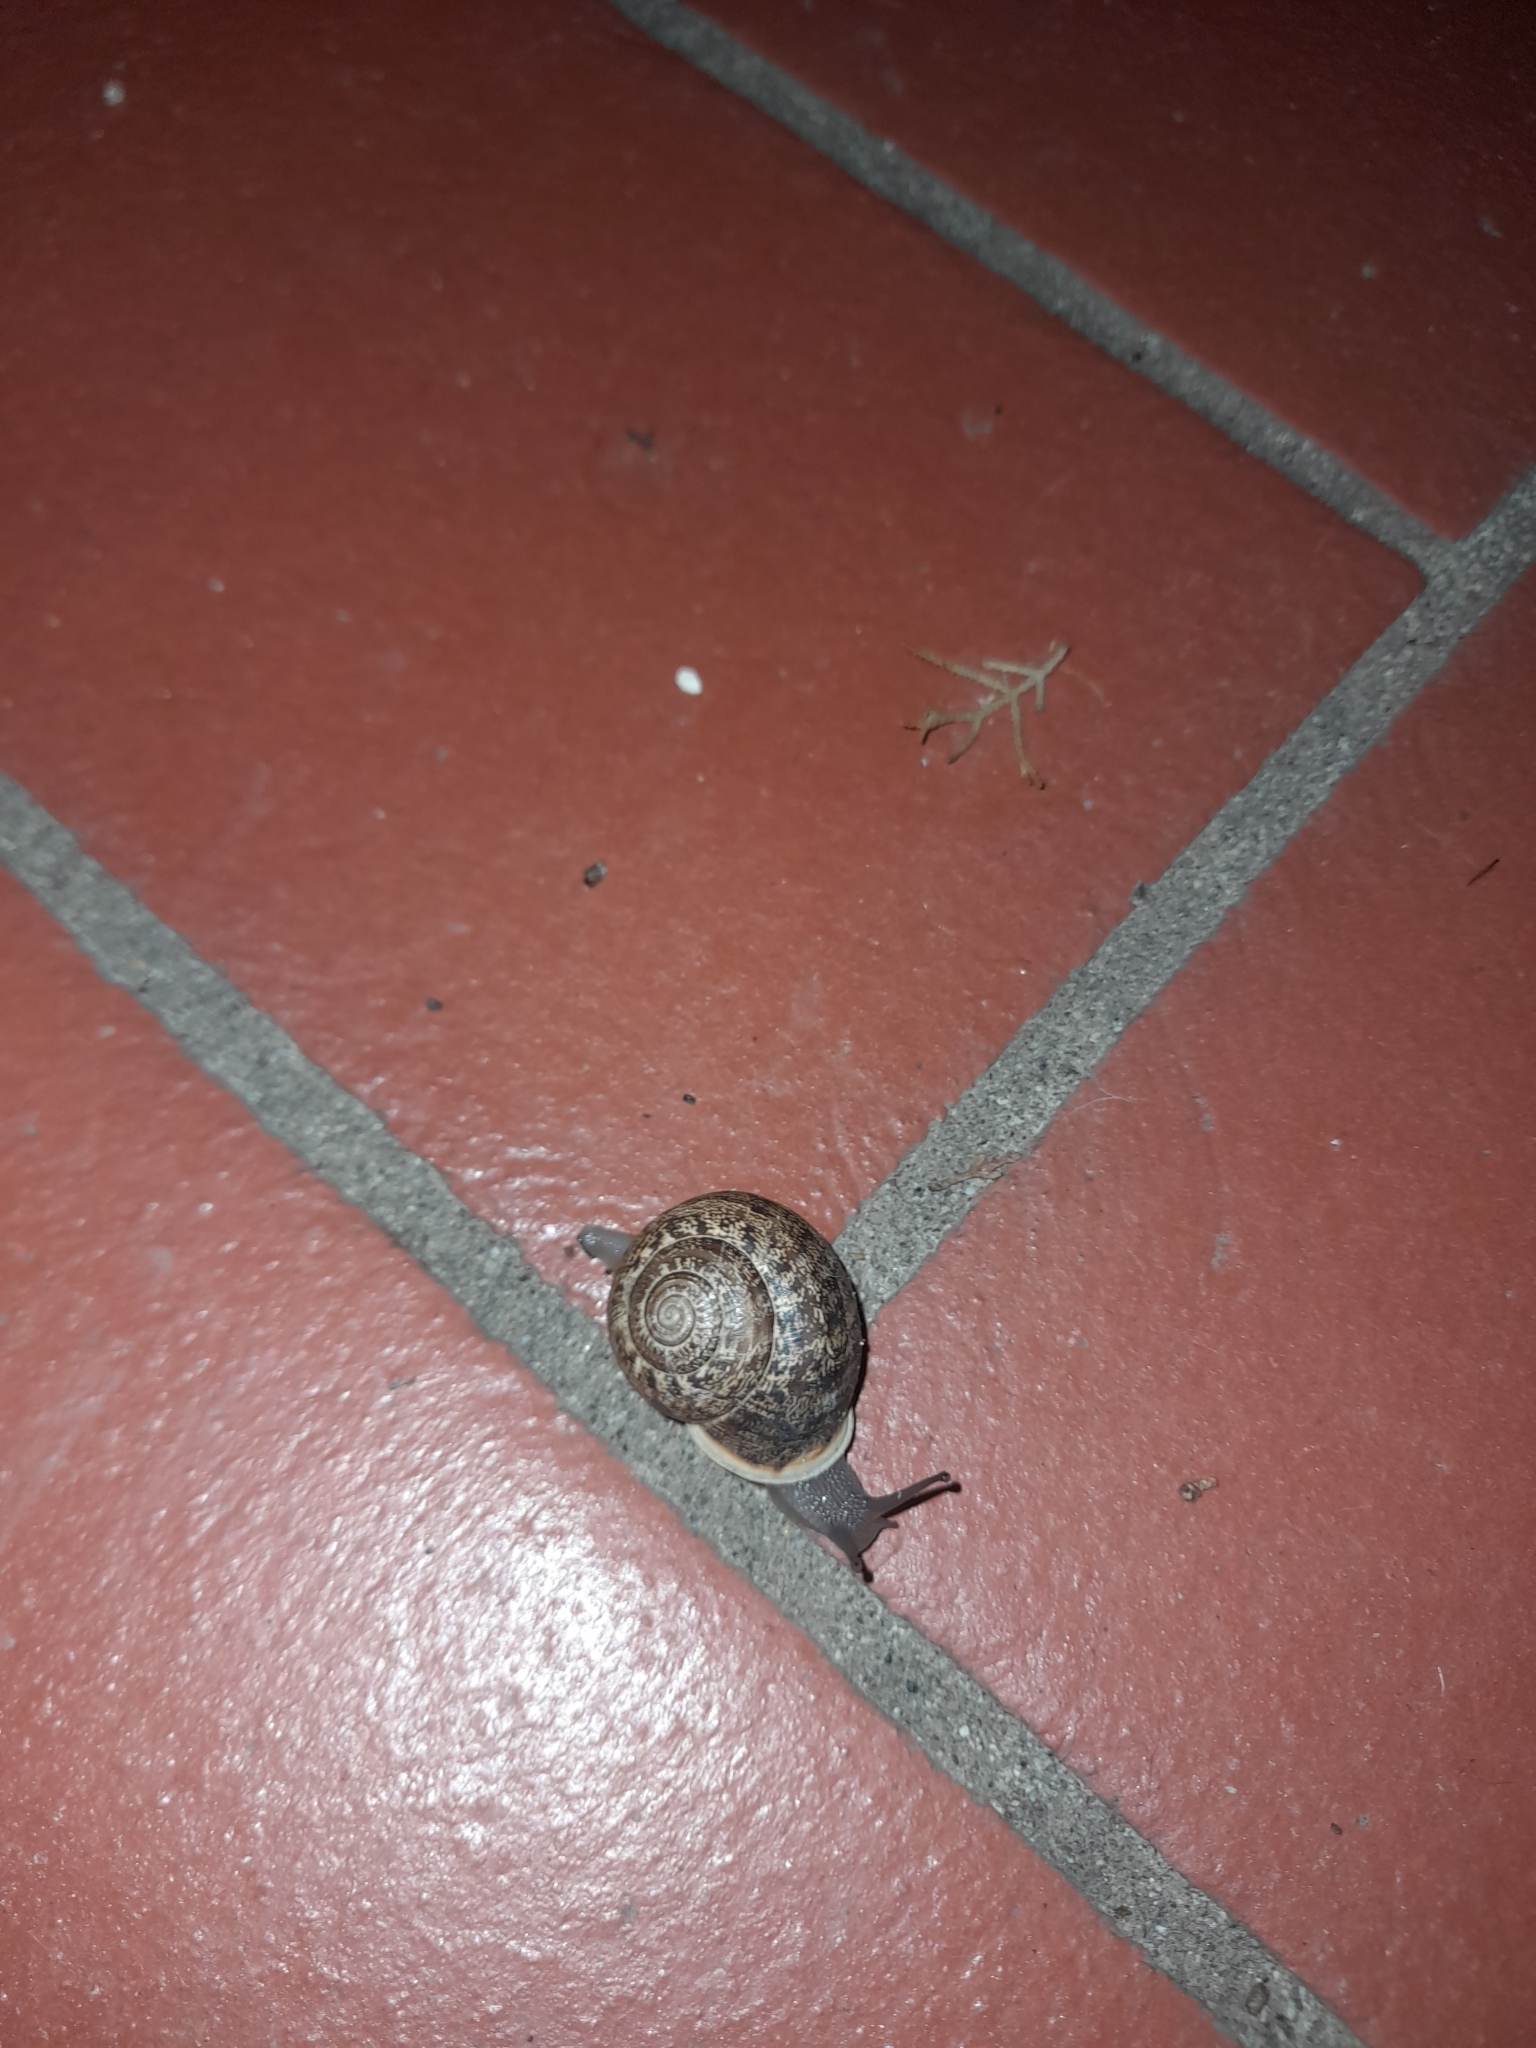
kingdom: Animalia
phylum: Mollusca
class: Gastropoda
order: Stylommatophora
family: Helicidae
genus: Eobania
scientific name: Eobania vermiculata
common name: Chocolateband snail
